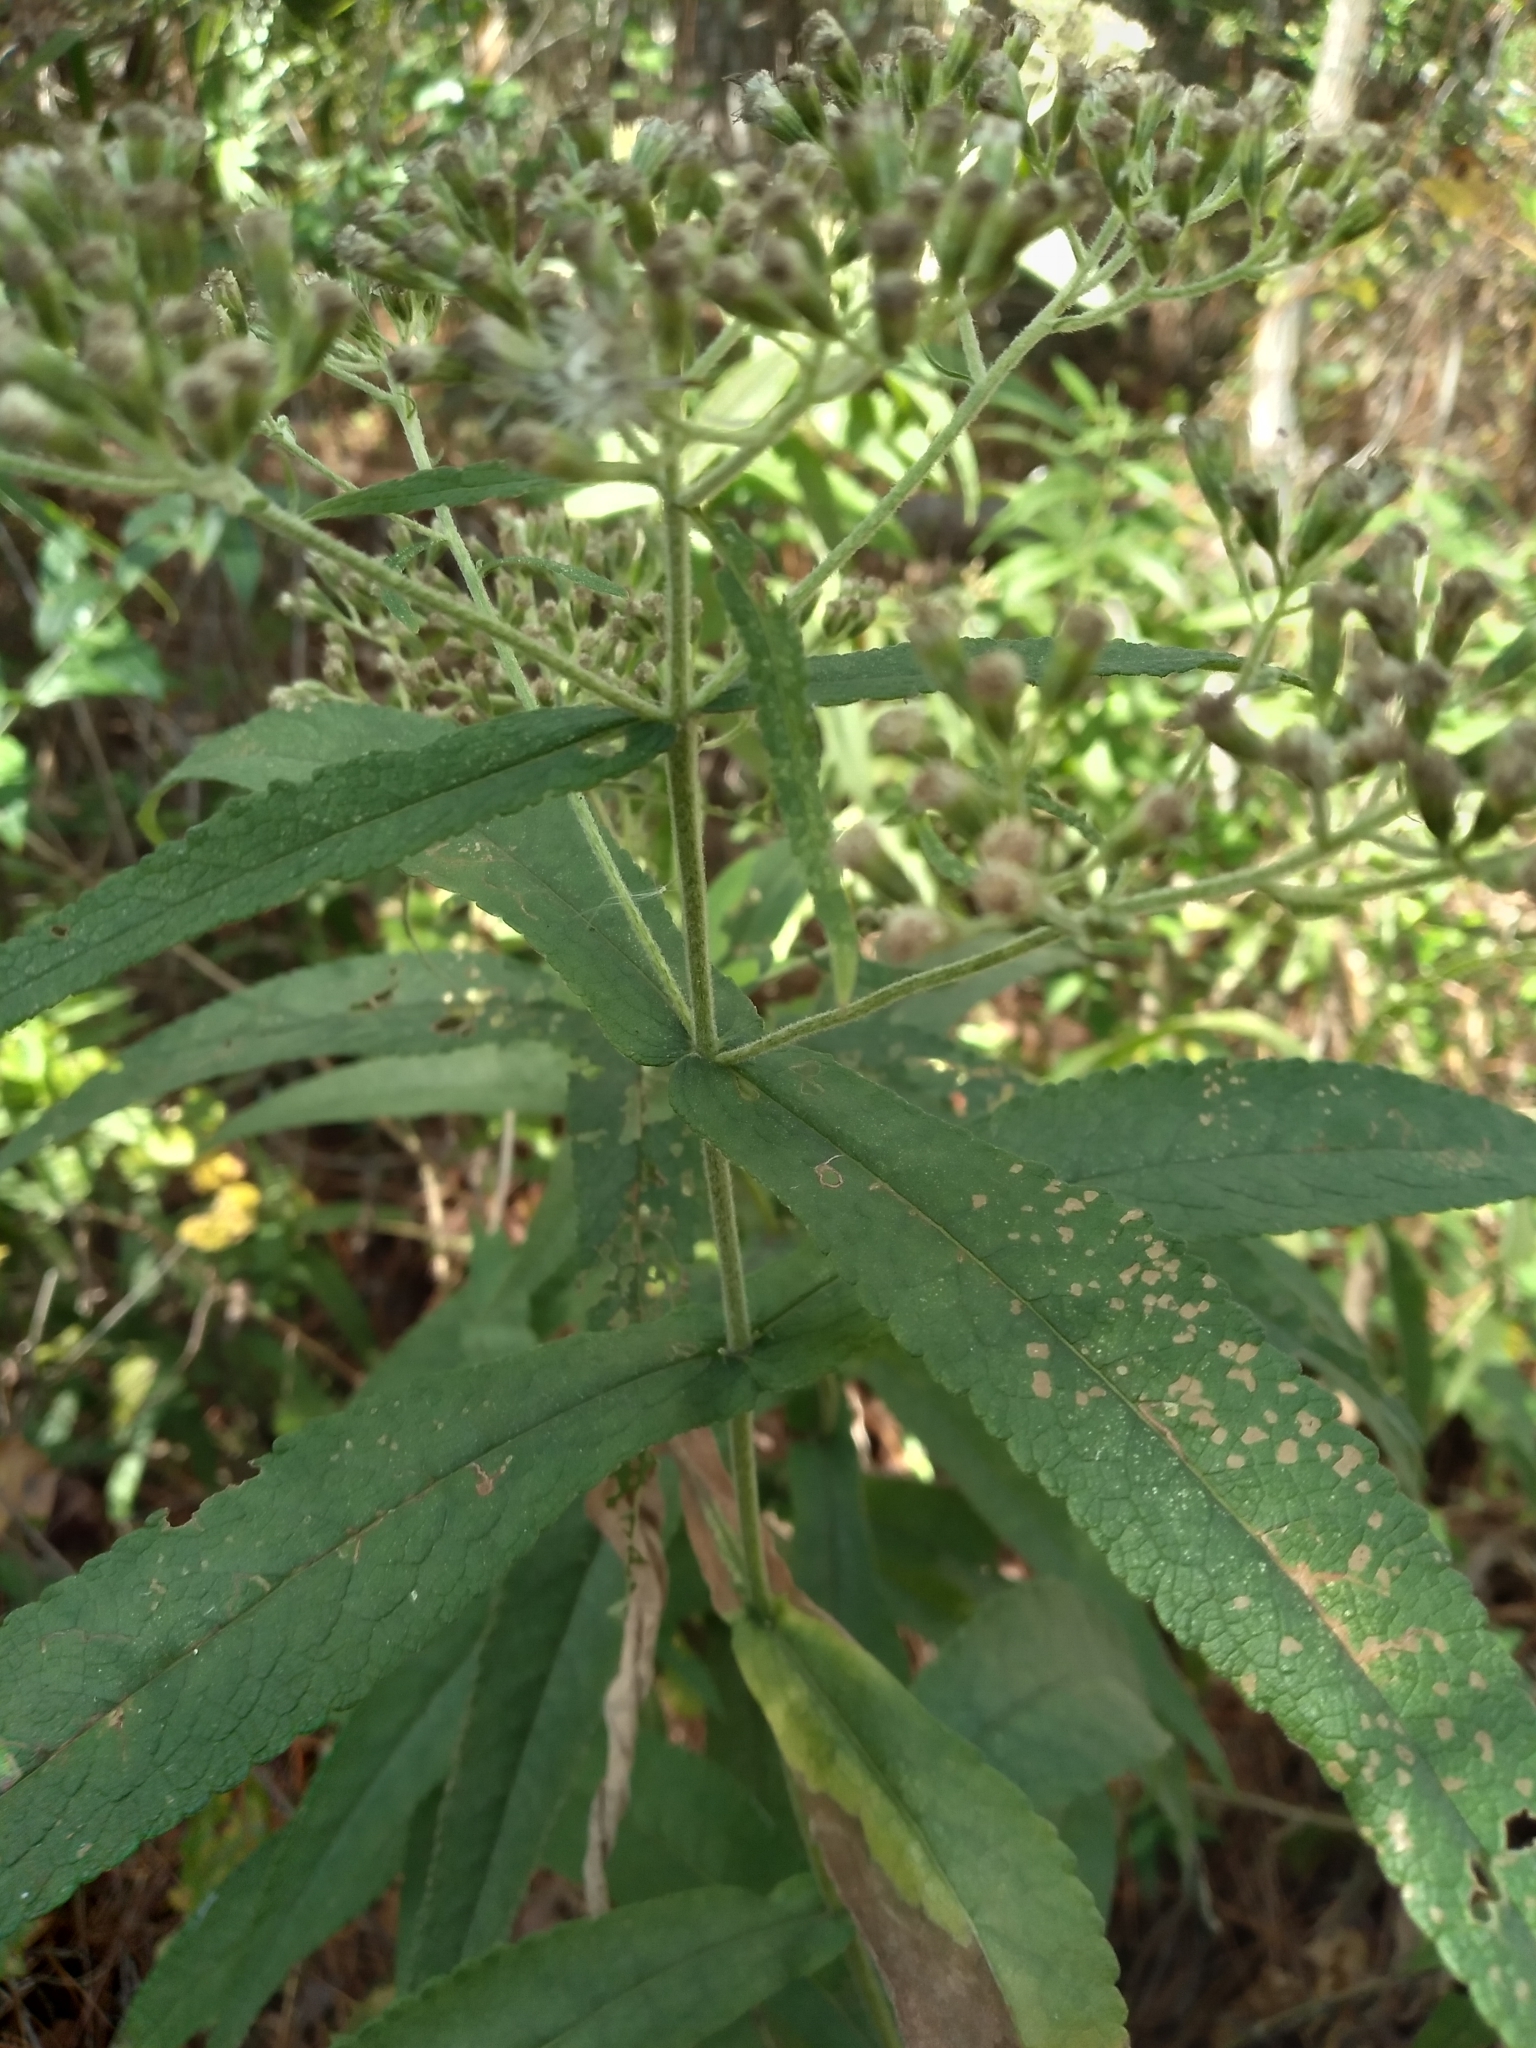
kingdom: Plantae
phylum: Tracheophyta
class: Magnoliopsida
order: Asterales
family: Asteraceae
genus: Eupatorium
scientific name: Eupatorium perfoliatum
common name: Boneset
